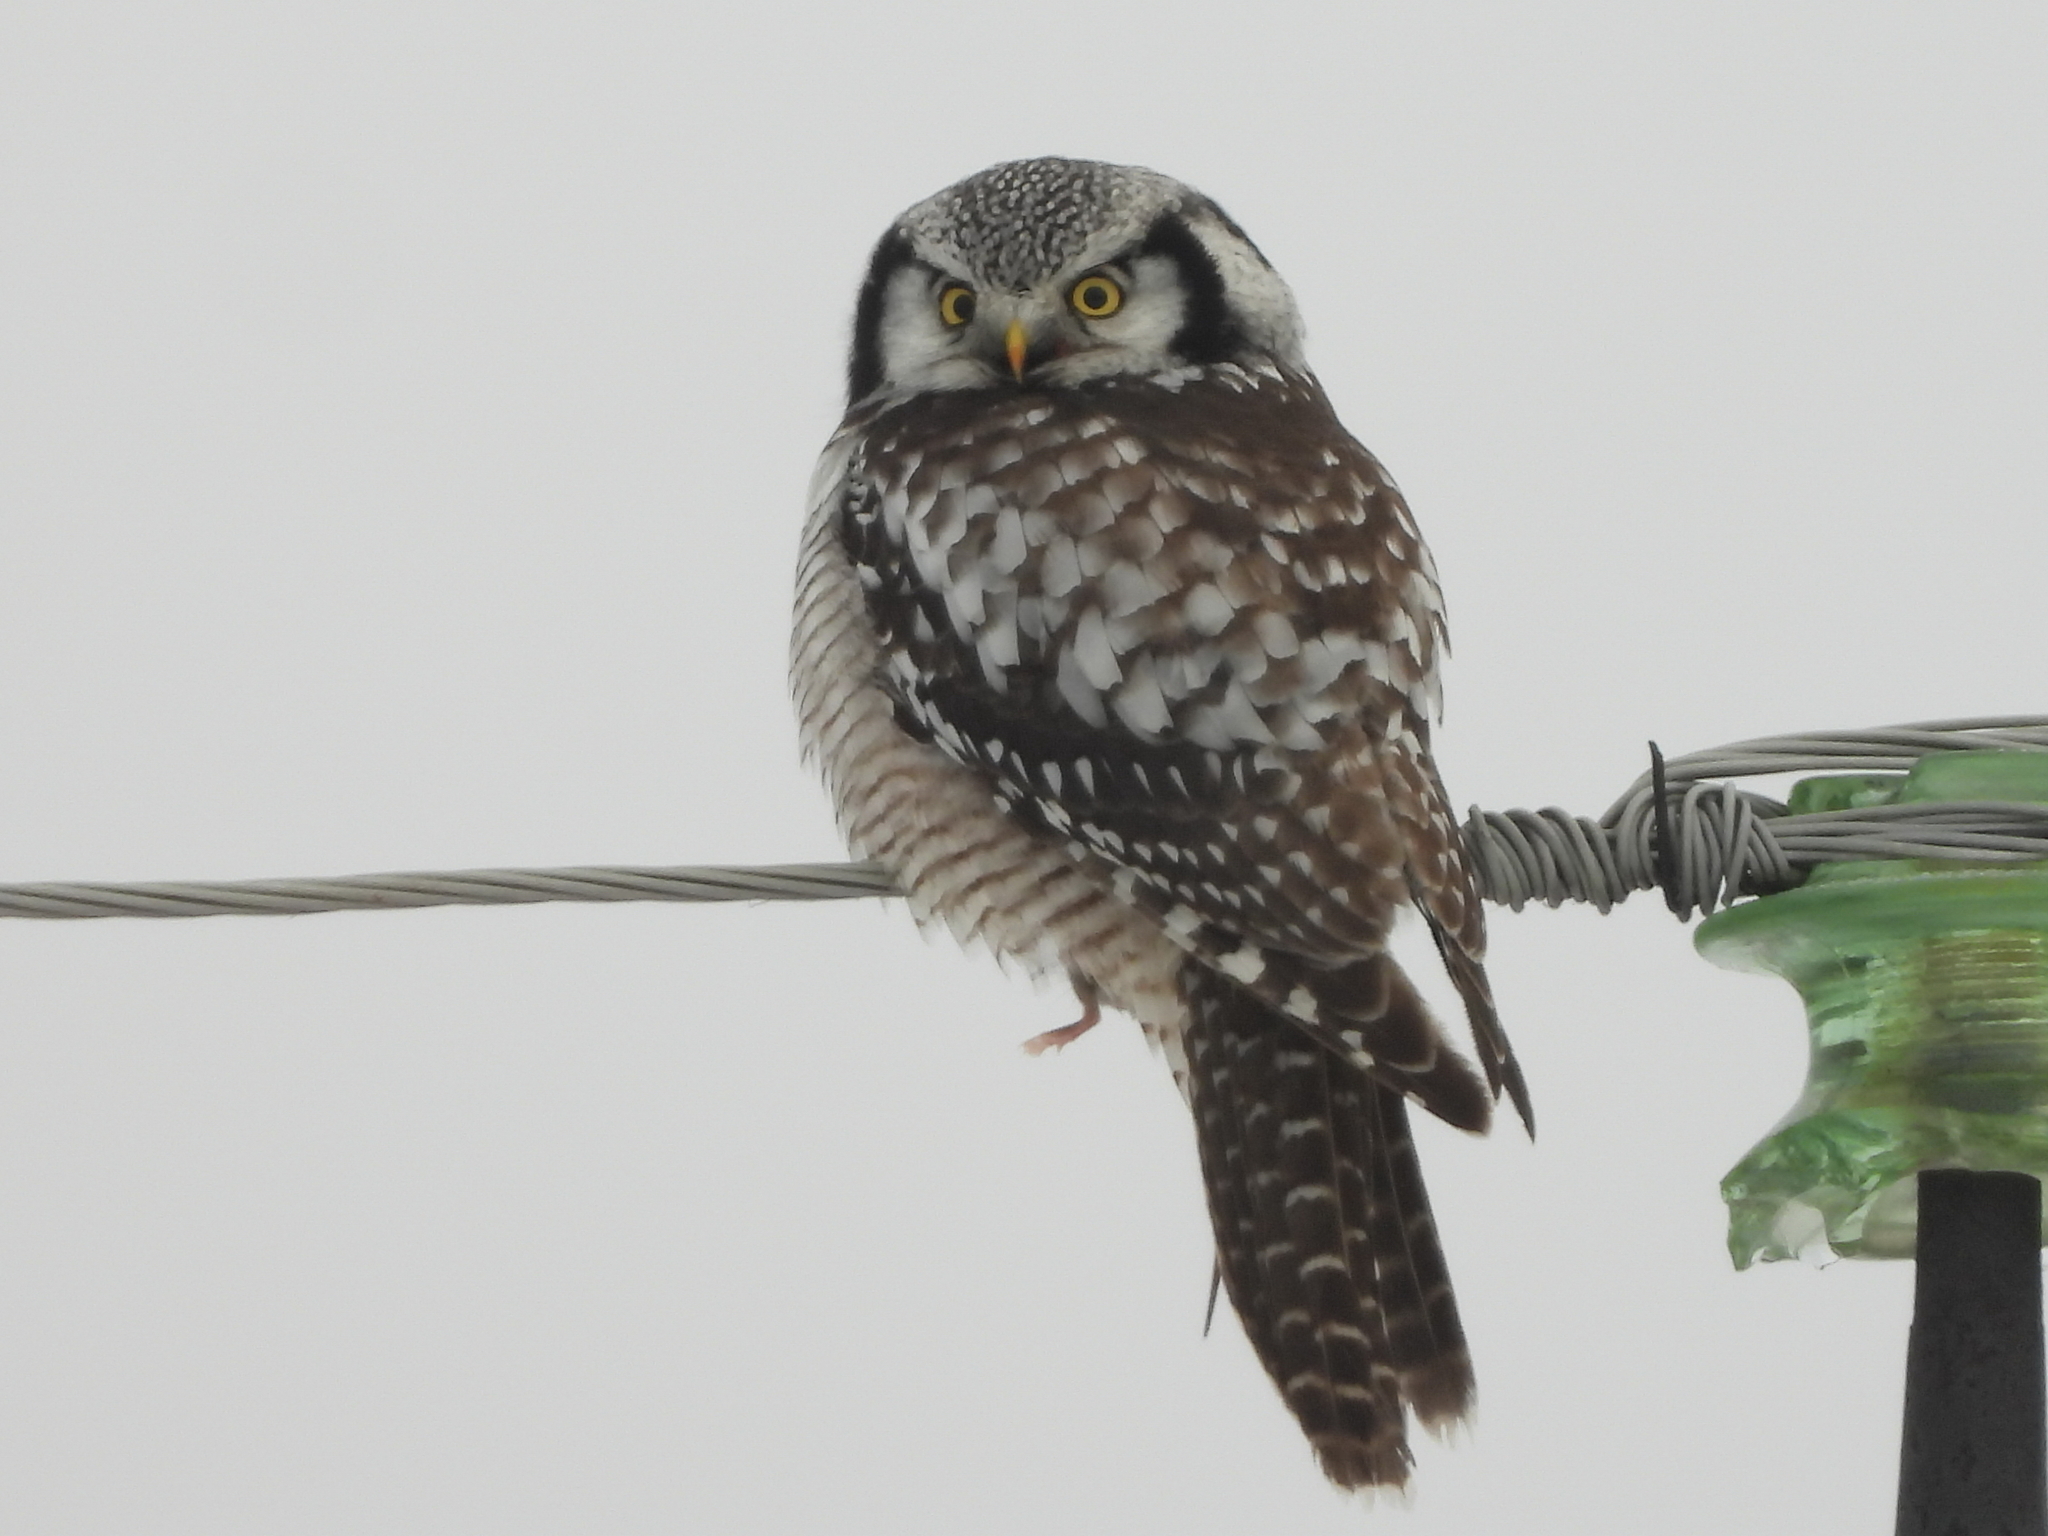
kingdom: Animalia
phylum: Chordata
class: Aves
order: Strigiformes
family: Strigidae
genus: Surnia
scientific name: Surnia ulula
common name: Northern hawk-owl
